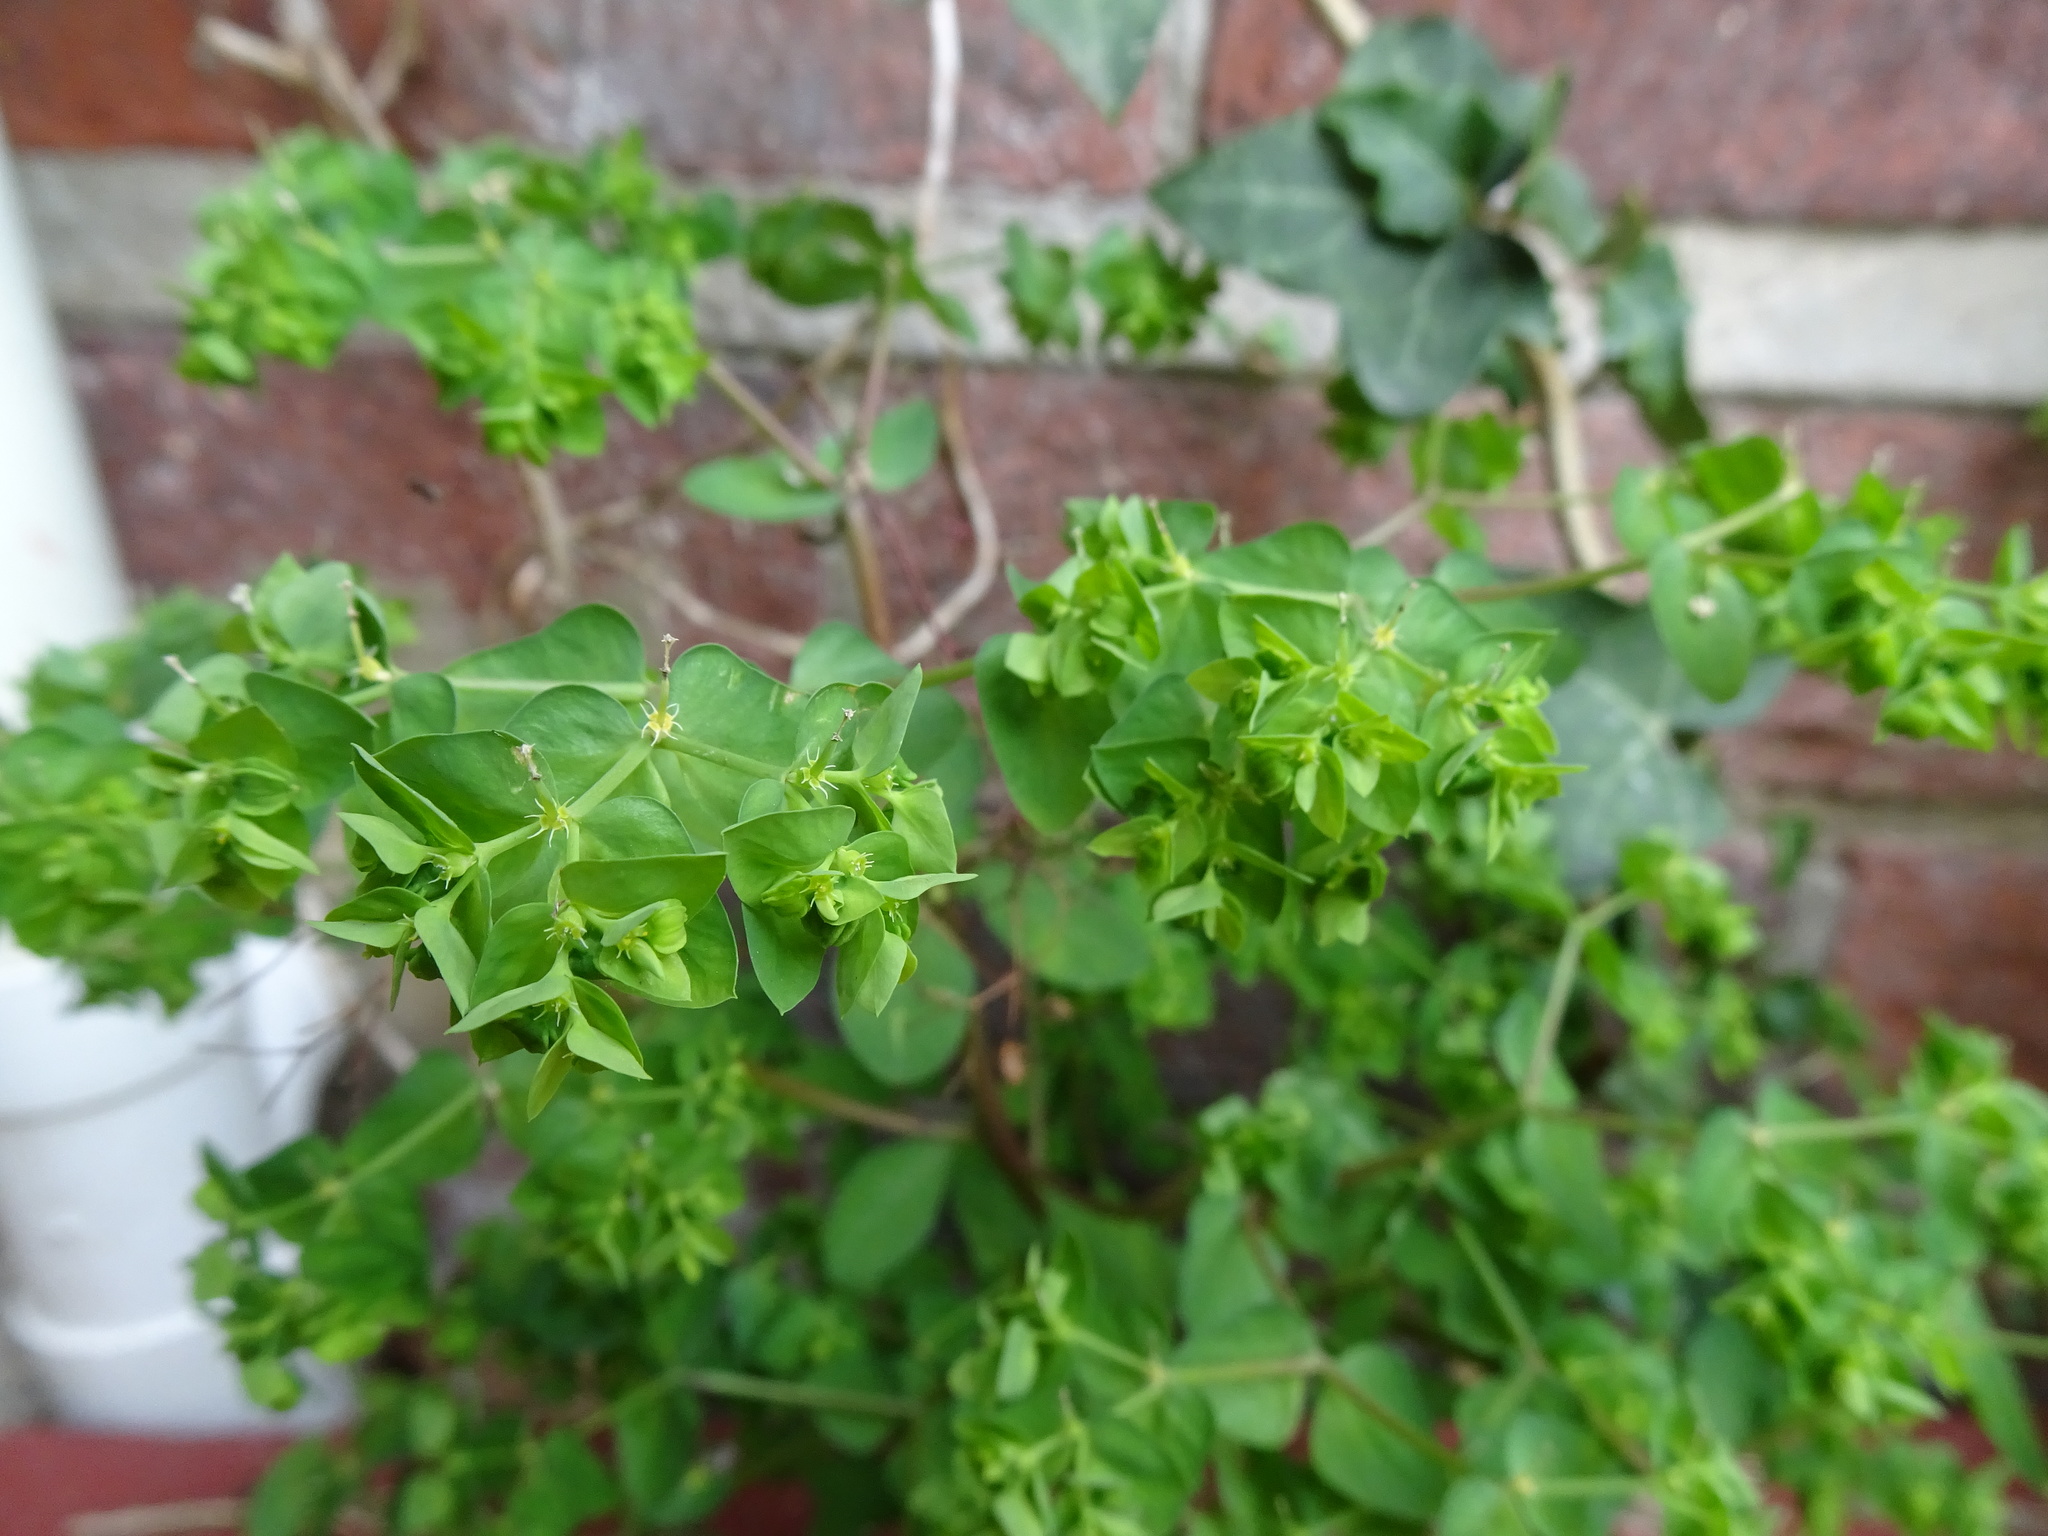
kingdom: Plantae
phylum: Tracheophyta
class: Magnoliopsida
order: Malpighiales
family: Euphorbiaceae
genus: Euphorbia
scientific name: Euphorbia peplus
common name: Petty spurge
